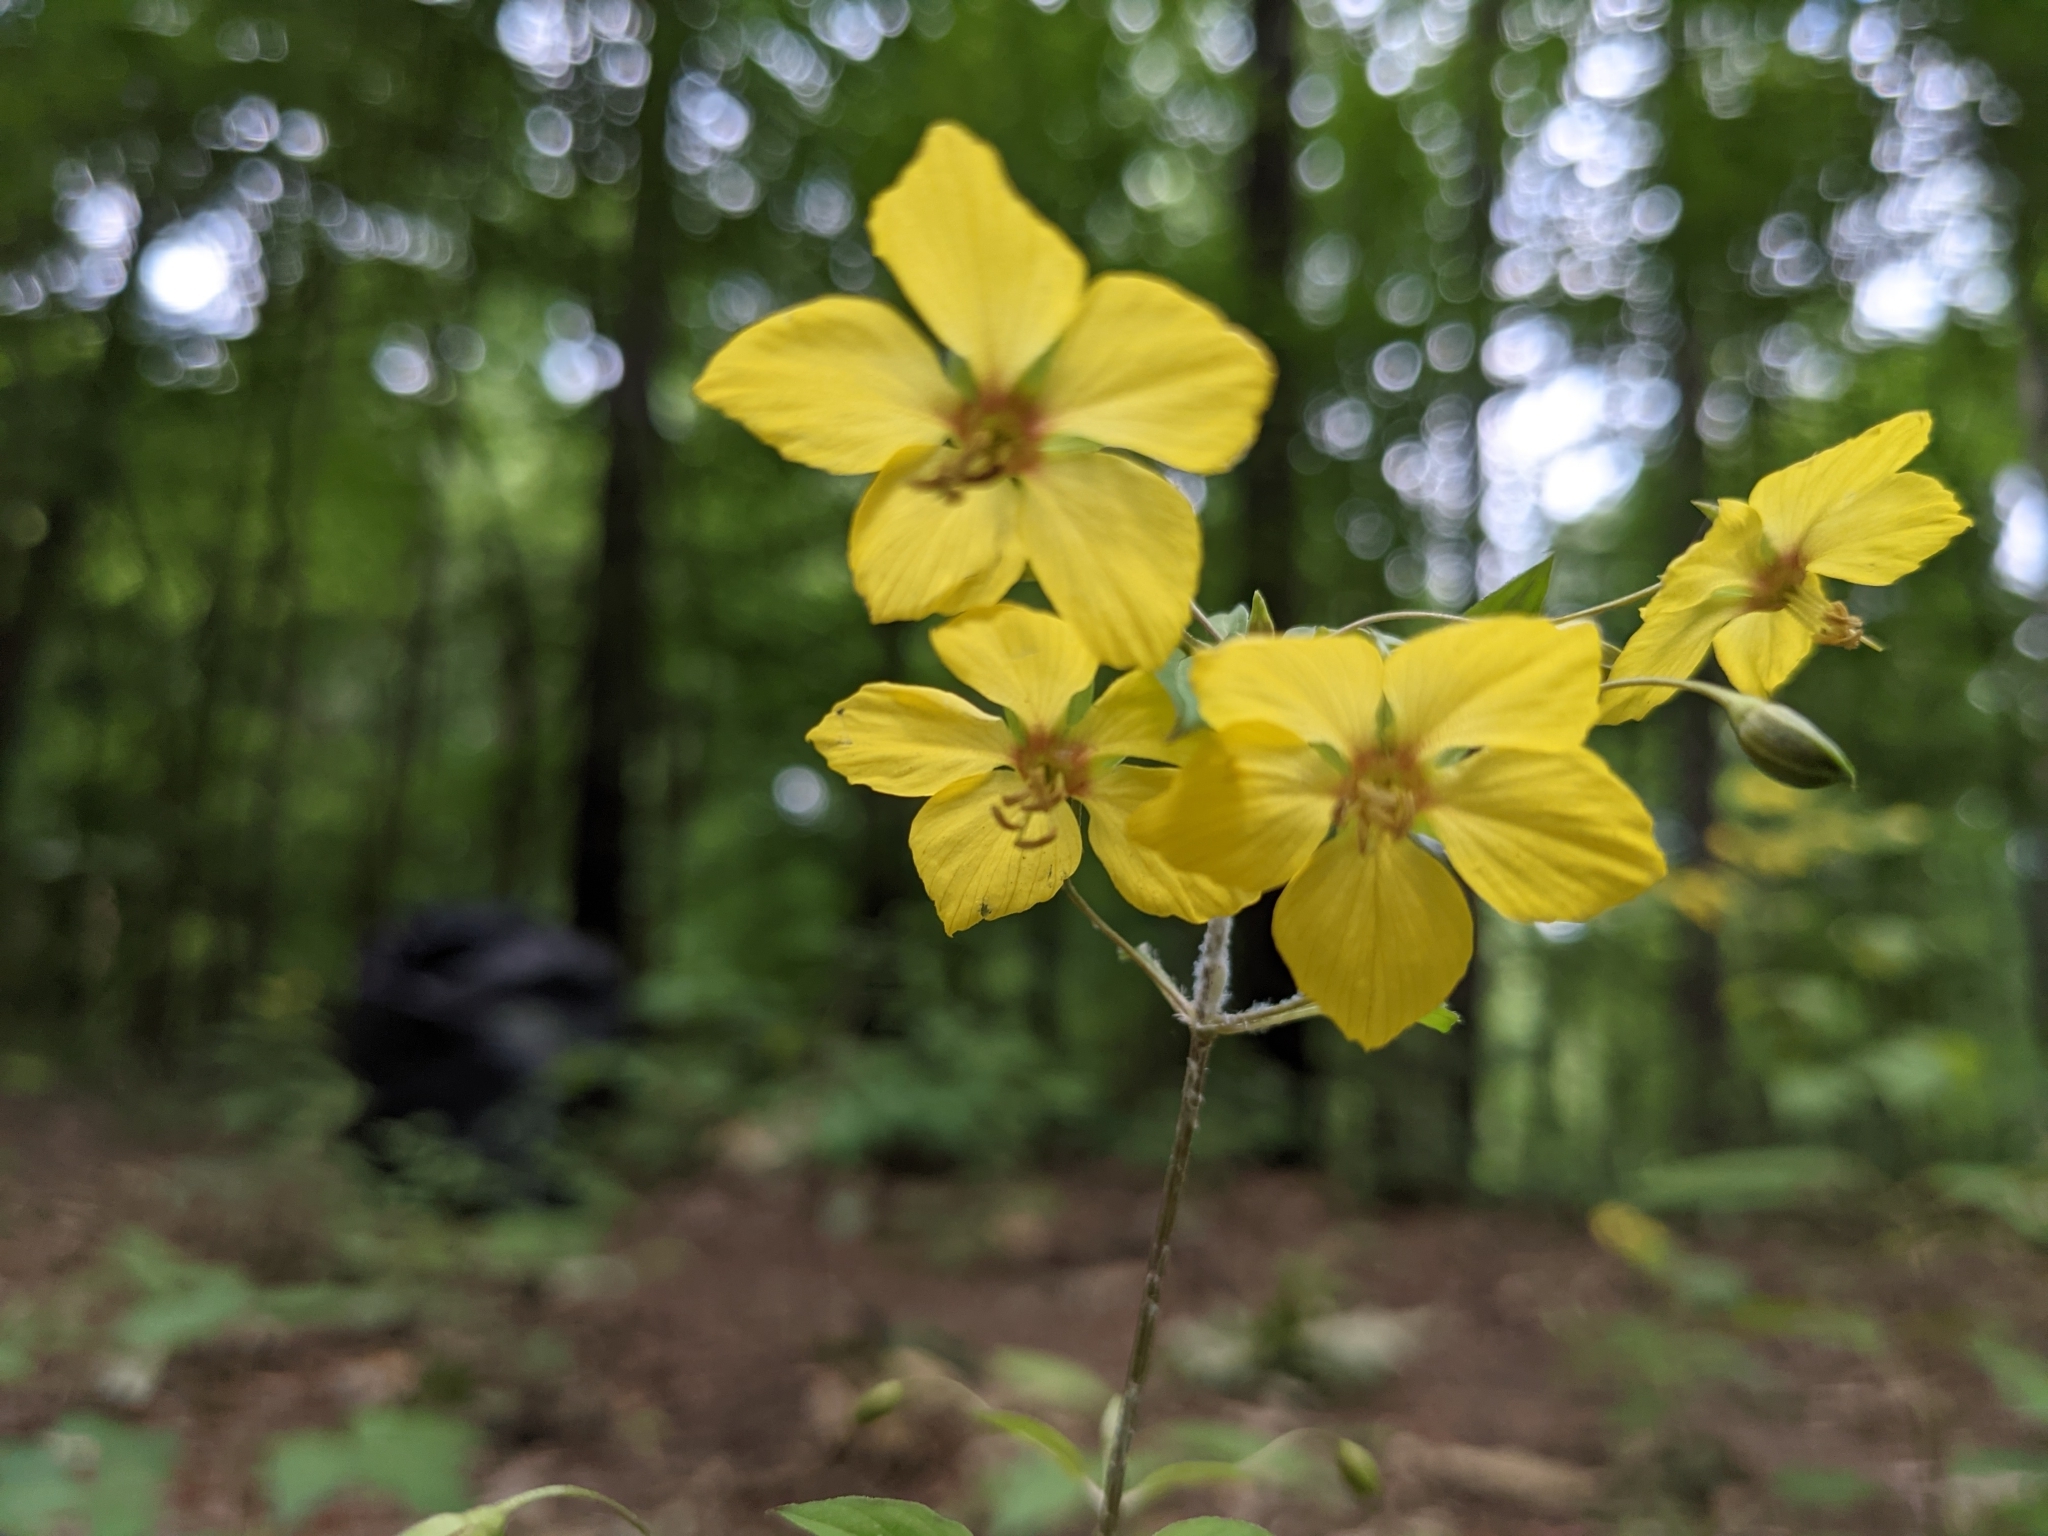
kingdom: Plantae
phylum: Tracheophyta
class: Magnoliopsida
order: Ericales
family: Primulaceae
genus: Lysimachia
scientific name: Lysimachia ciliata
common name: Fringed loosestrife
